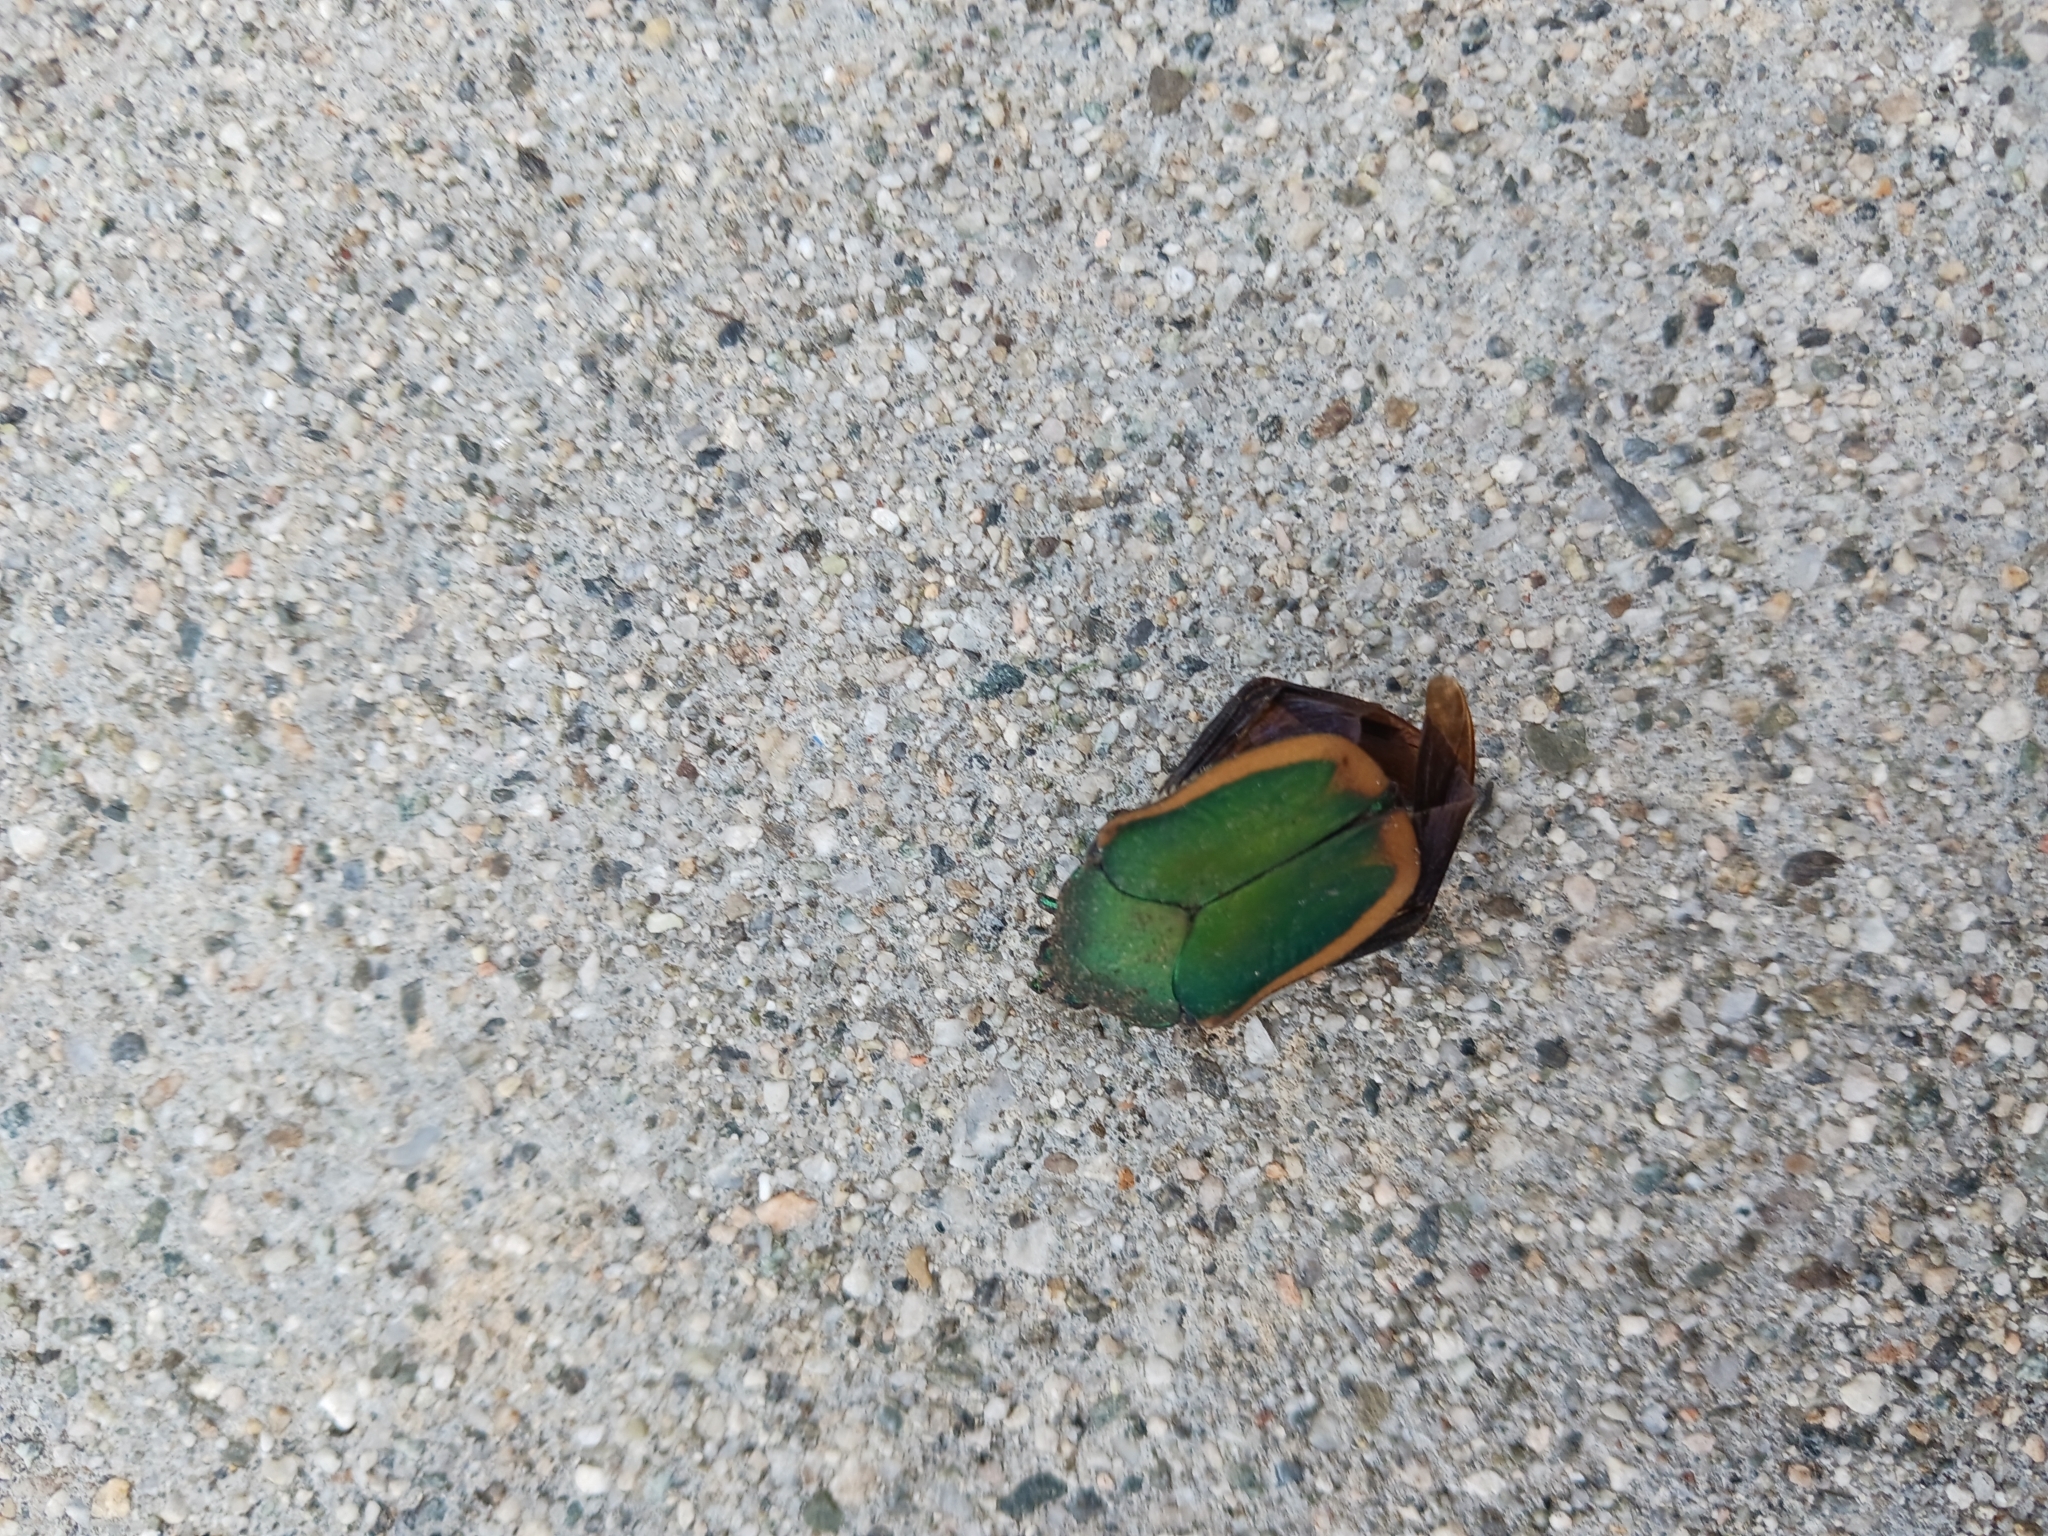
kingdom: Animalia
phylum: Arthropoda
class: Insecta
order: Coleoptera
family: Scarabaeidae
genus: Cotinis
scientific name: Cotinis mutabilis
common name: Figeater beetle
